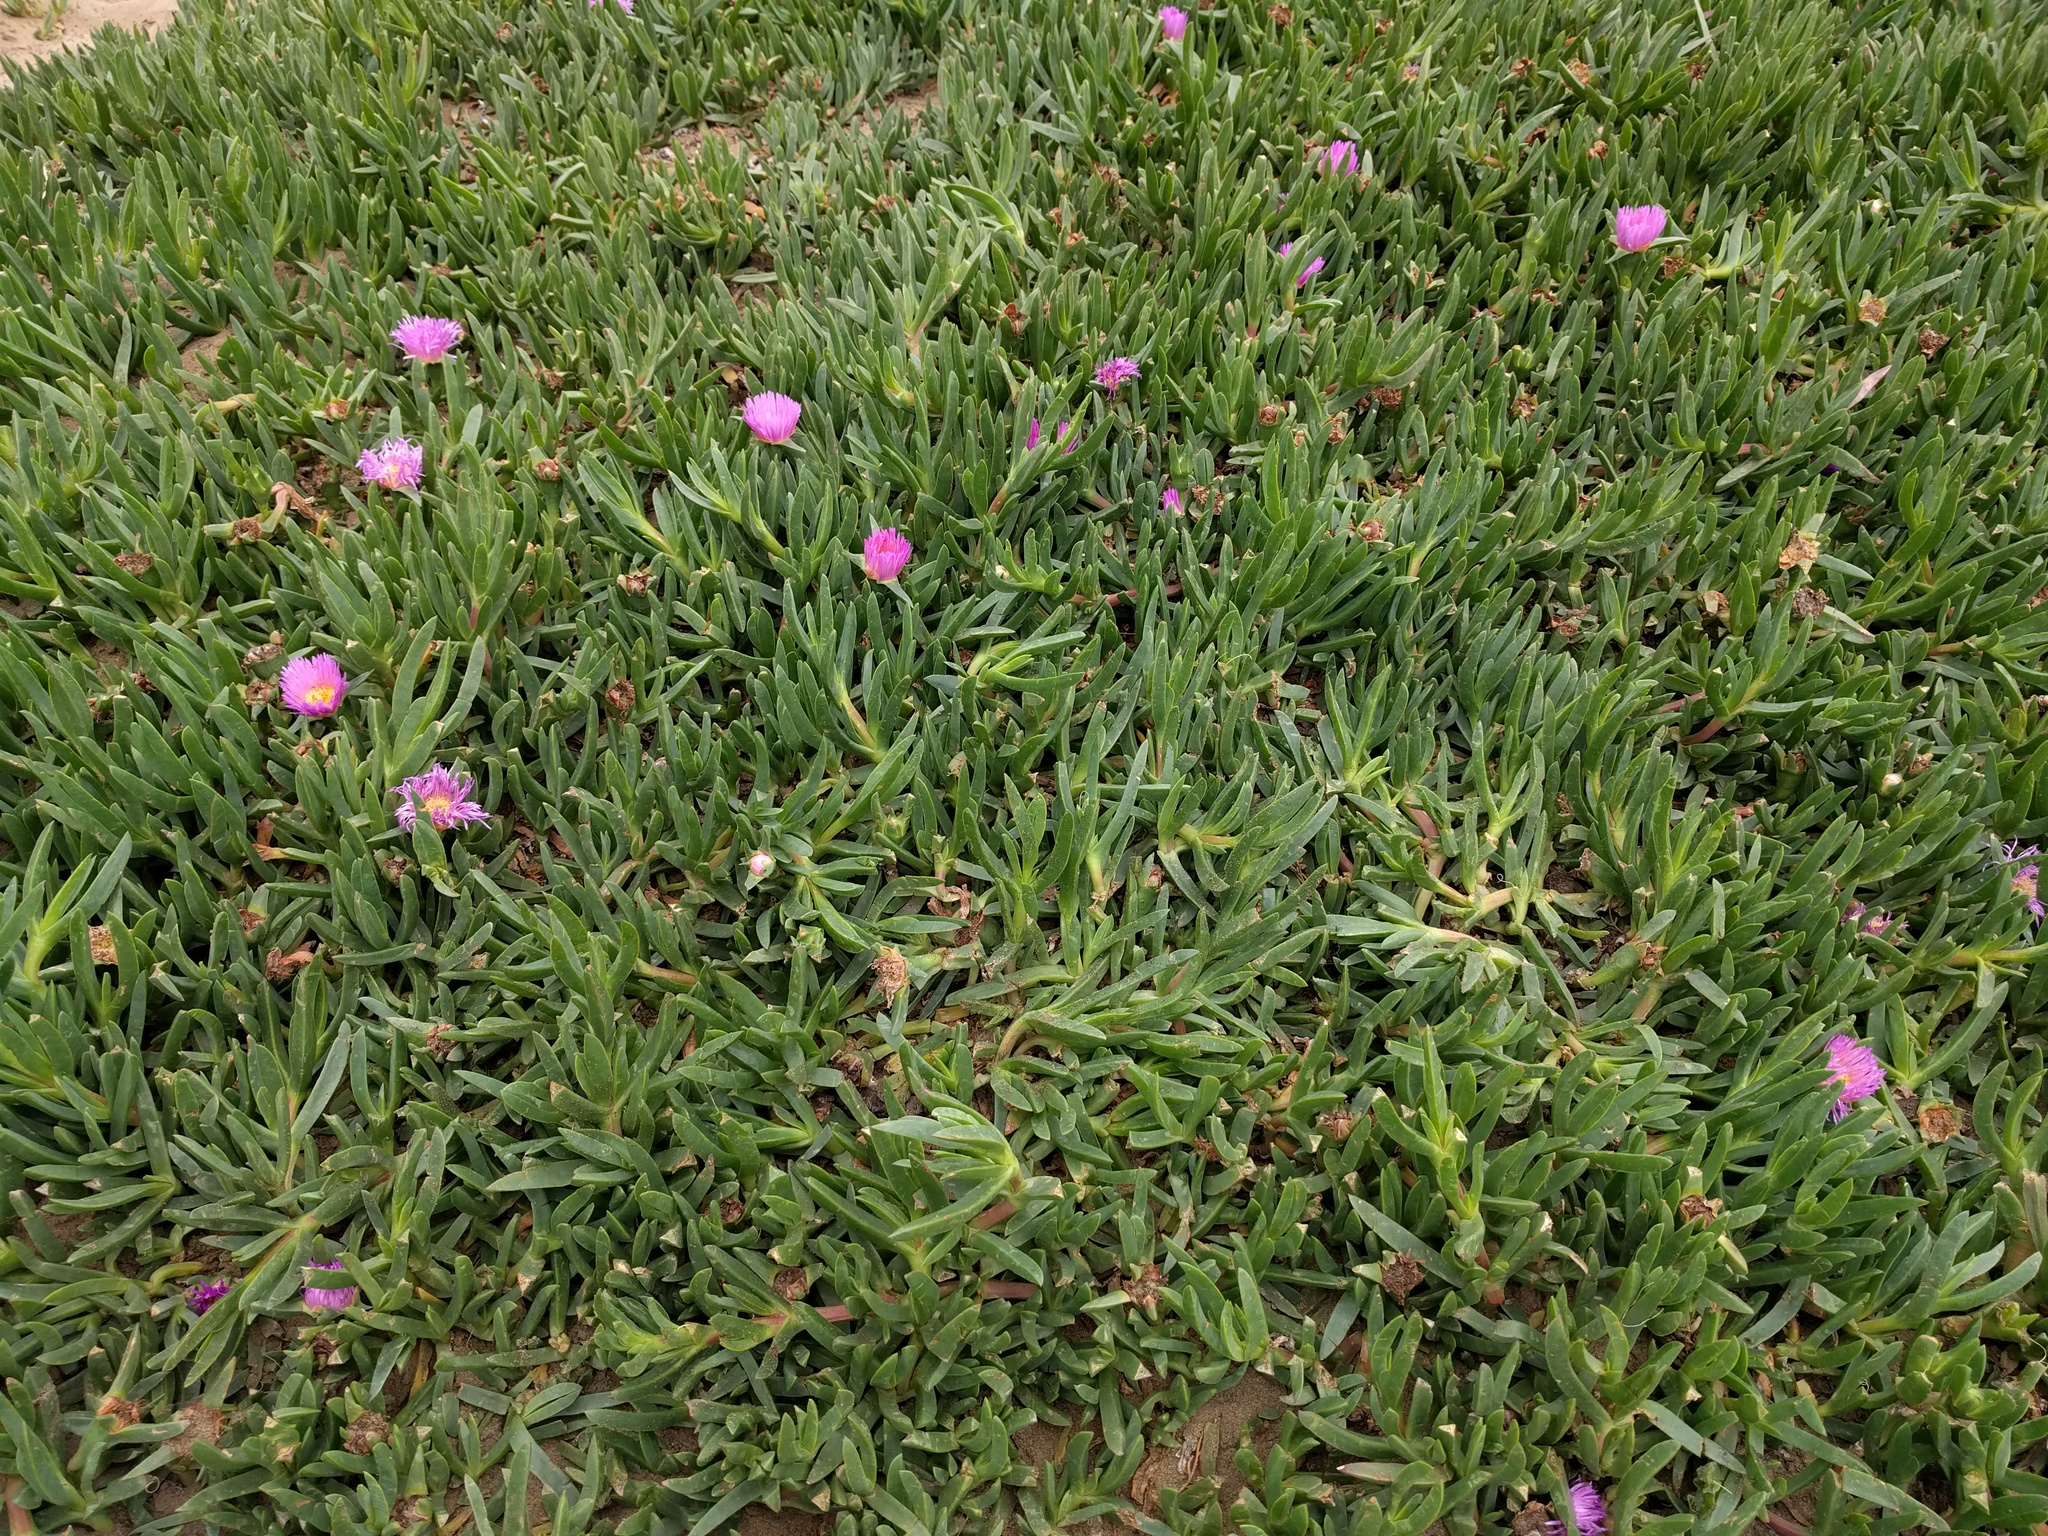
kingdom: Plantae
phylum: Tracheophyta
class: Magnoliopsida
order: Caryophyllales
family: Aizoaceae
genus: Carpobrotus
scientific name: Carpobrotus edulis
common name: Hottentot-fig
